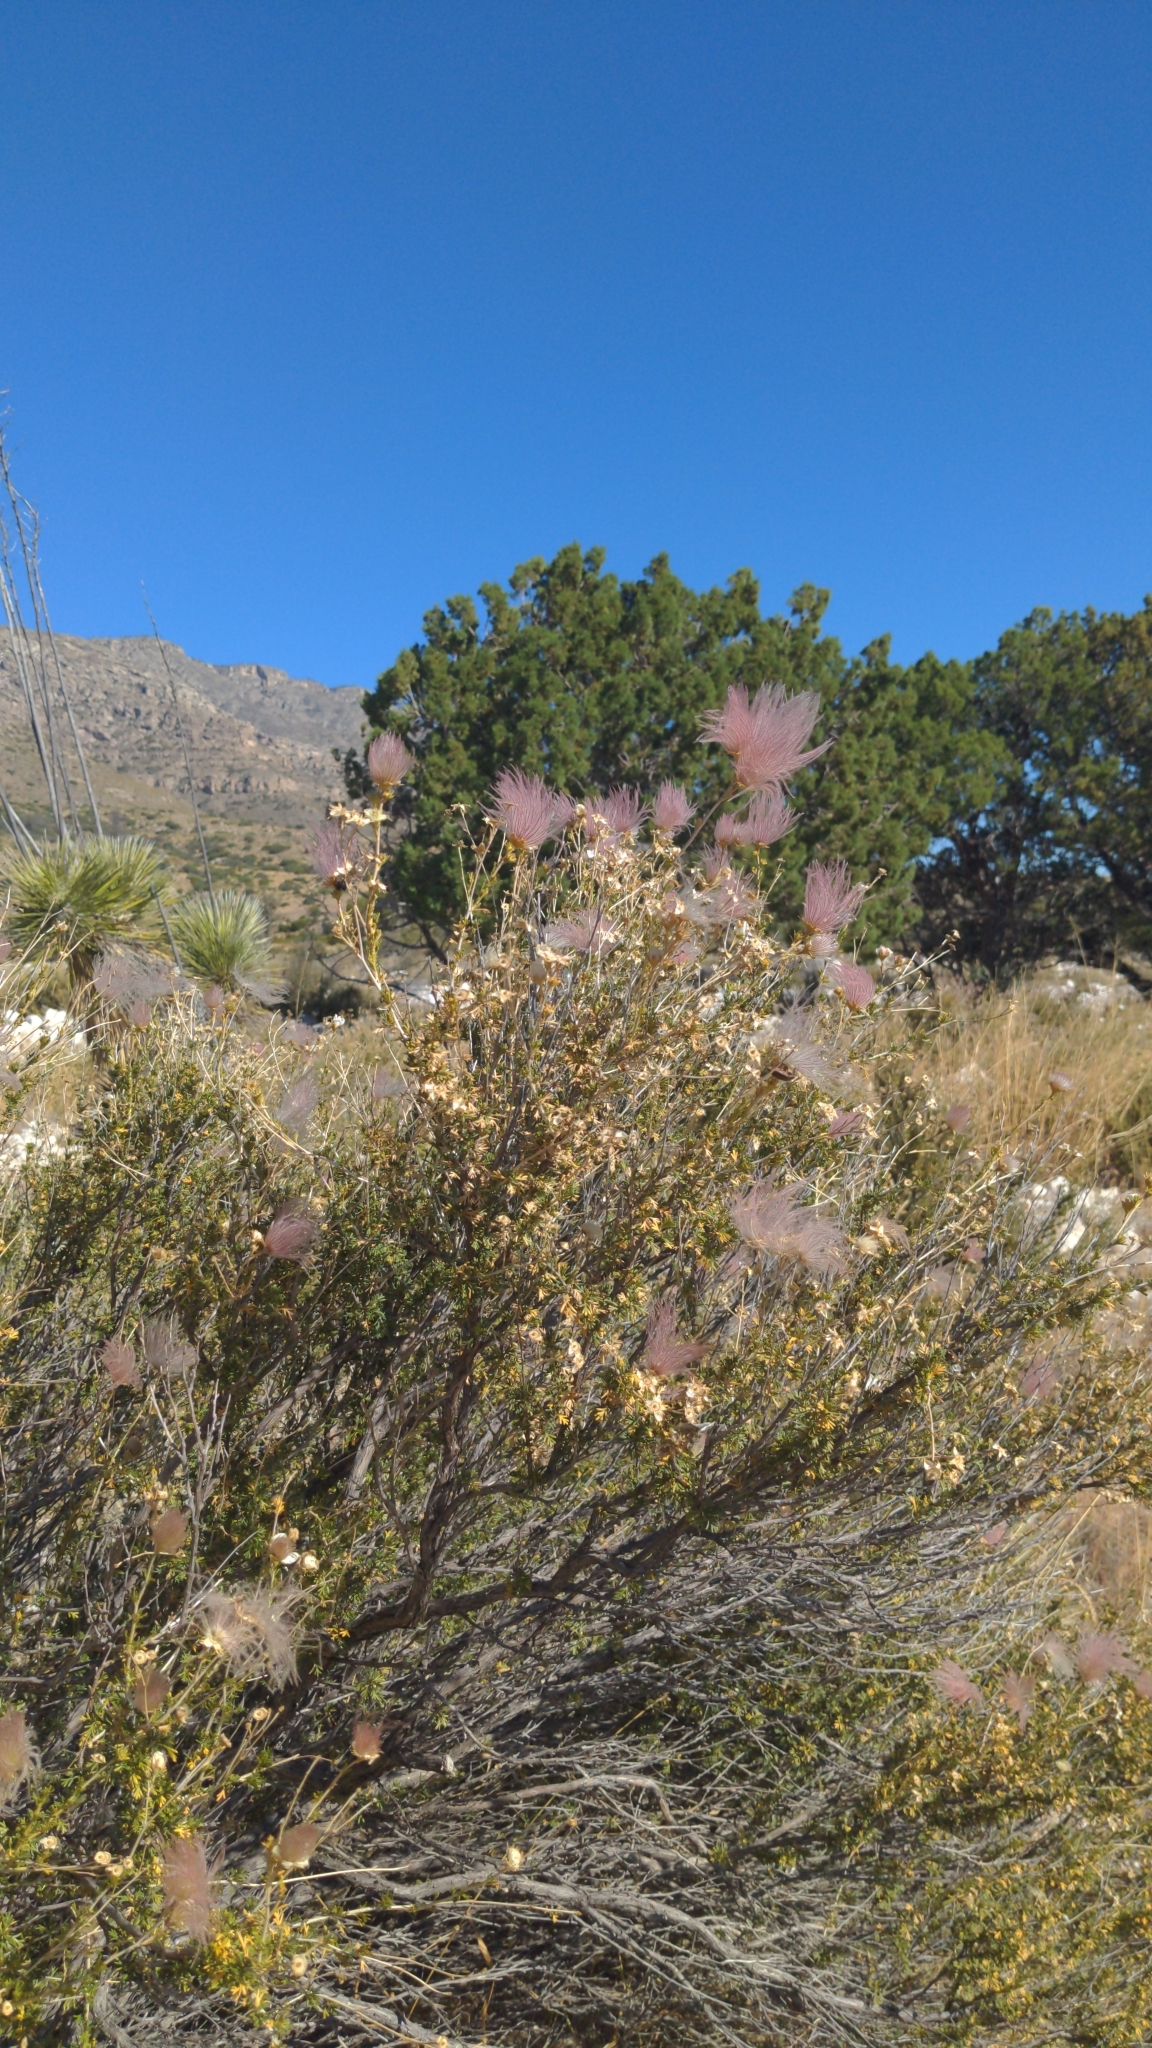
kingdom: Plantae
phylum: Tracheophyta
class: Magnoliopsida
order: Rosales
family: Rosaceae
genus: Fallugia
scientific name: Fallugia paradoxa
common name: Apache-plume
